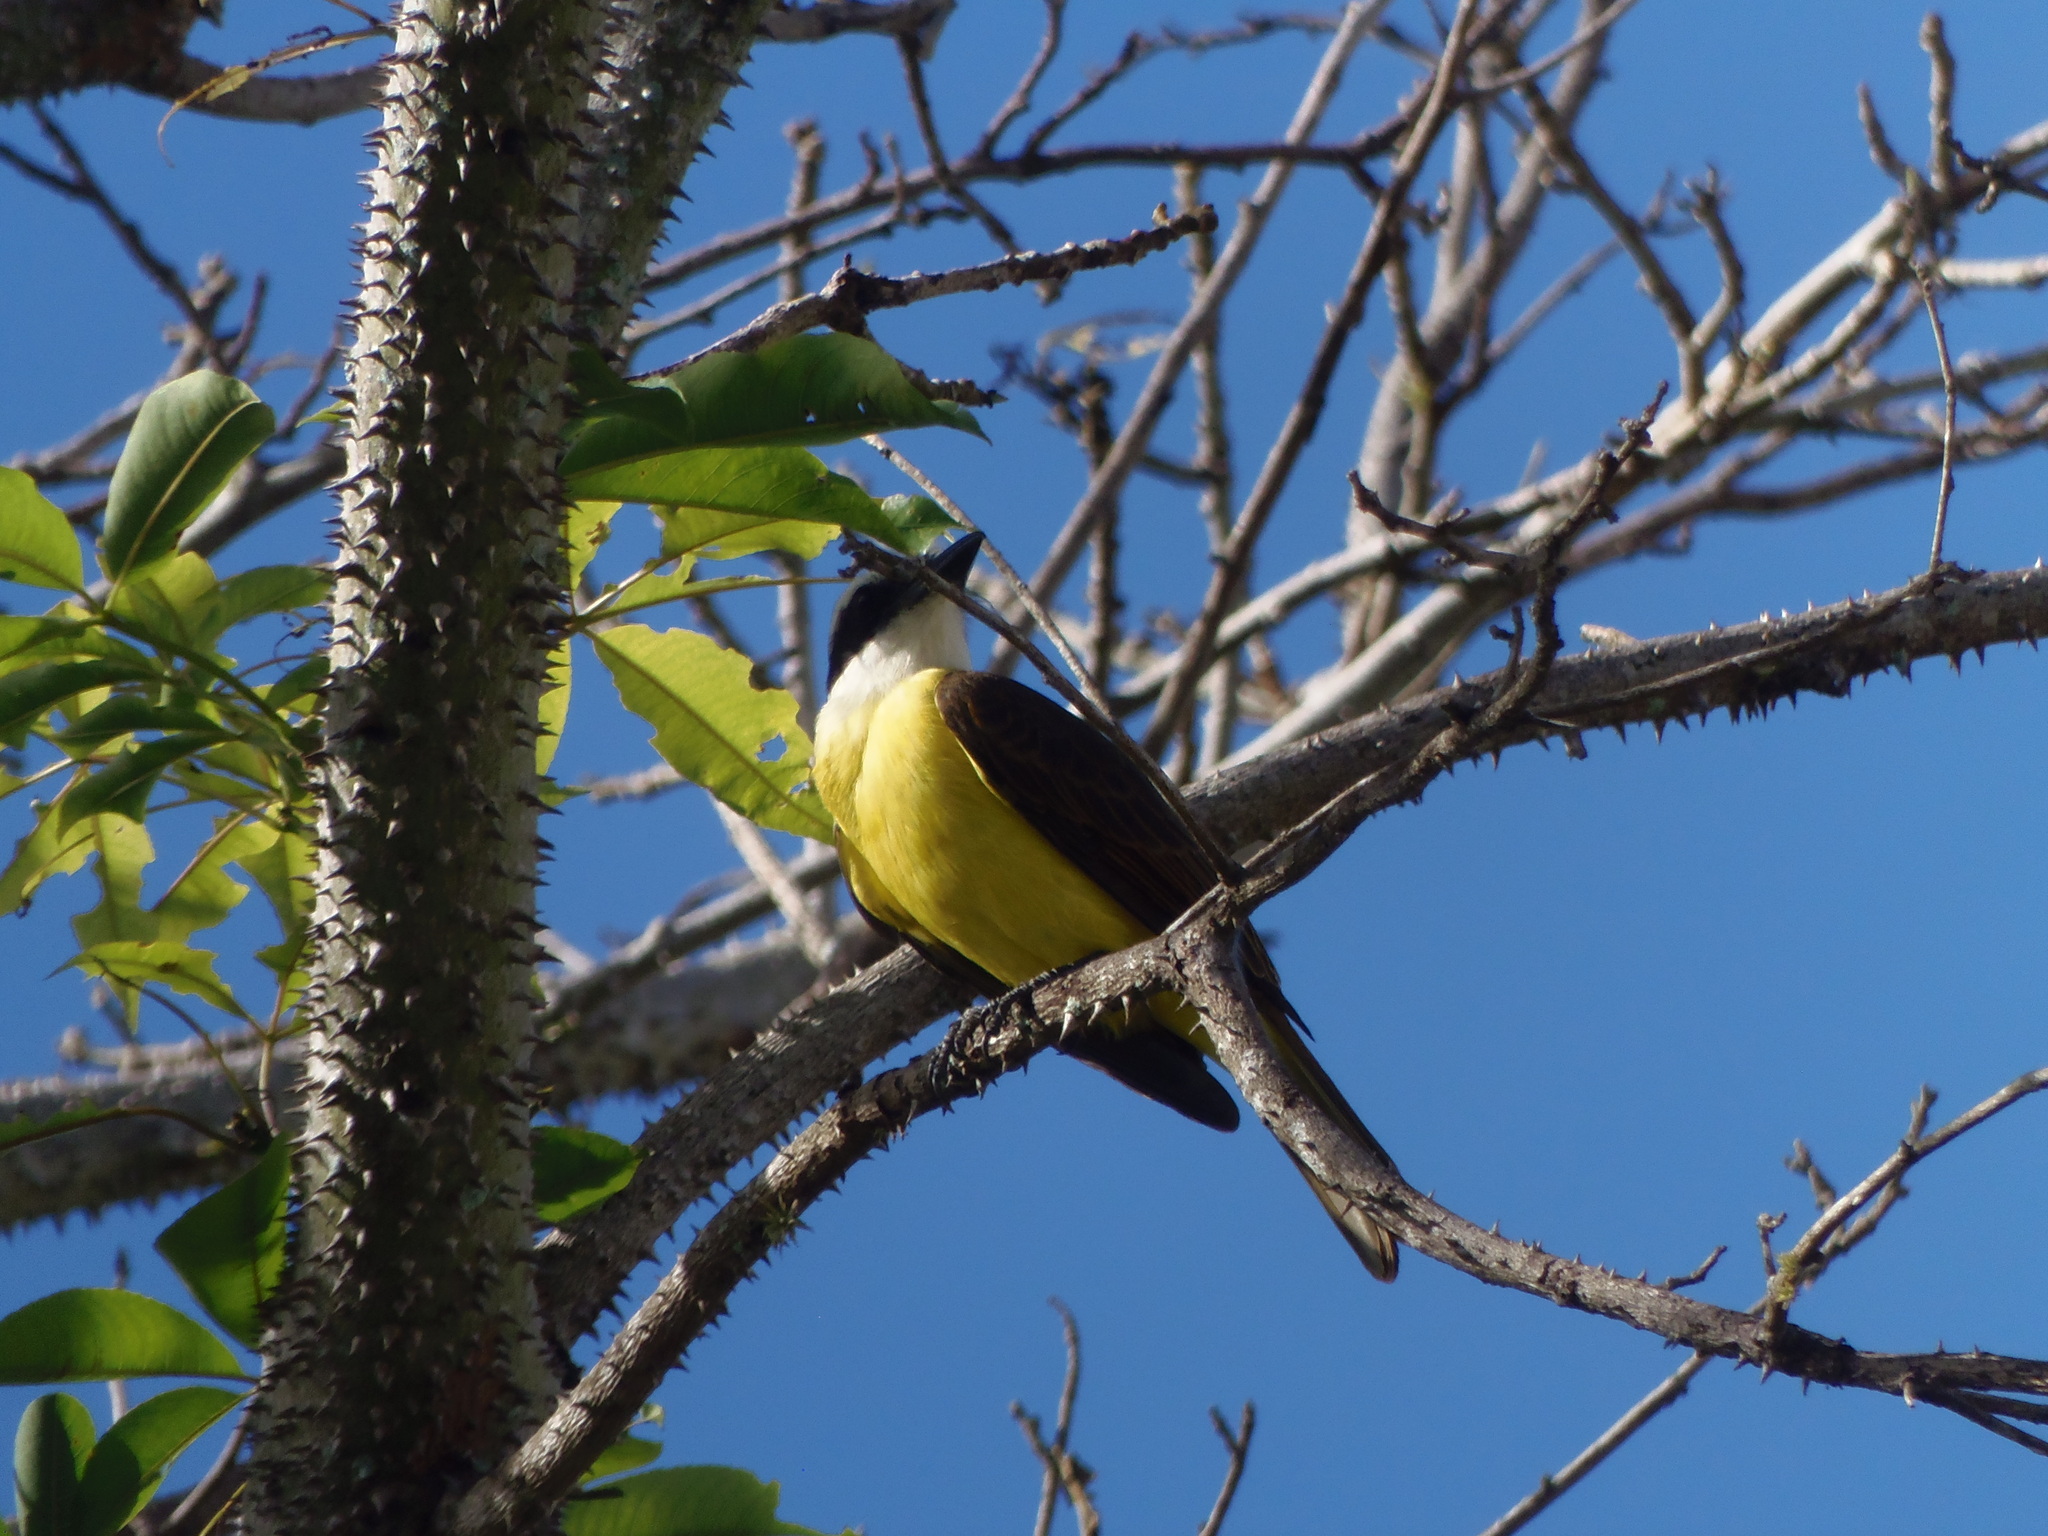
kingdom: Animalia
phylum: Chordata
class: Aves
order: Passeriformes
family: Tyrannidae
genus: Pitangus
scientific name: Pitangus sulphuratus
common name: Great kiskadee
